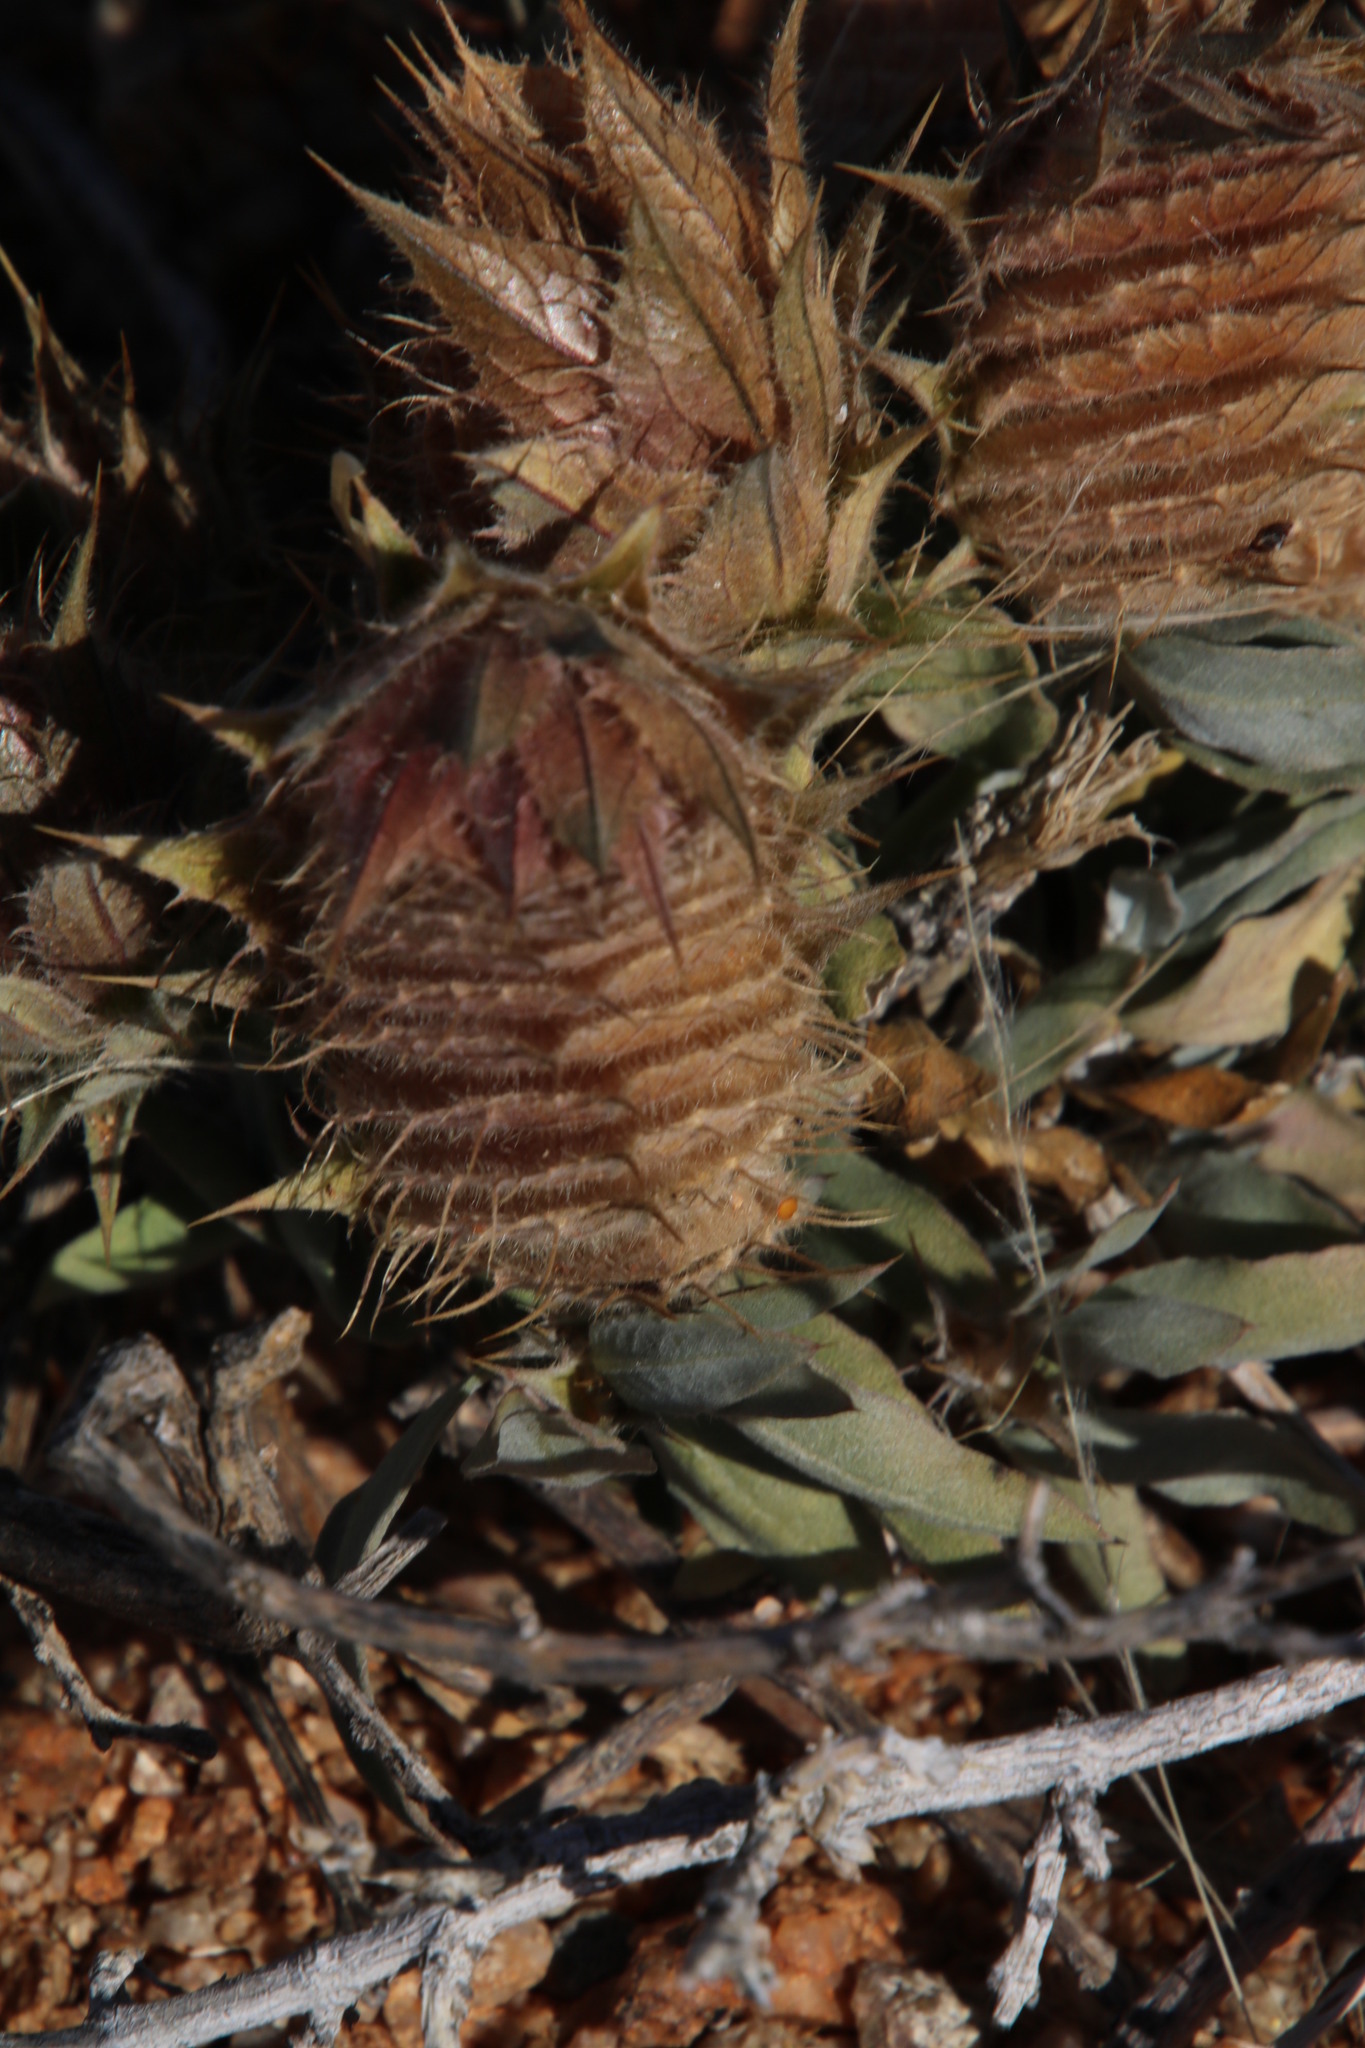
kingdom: Plantae
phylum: Tracheophyta
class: Magnoliopsida
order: Lamiales
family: Acanthaceae
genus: Barleria
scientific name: Barleria lichtensteiniana
